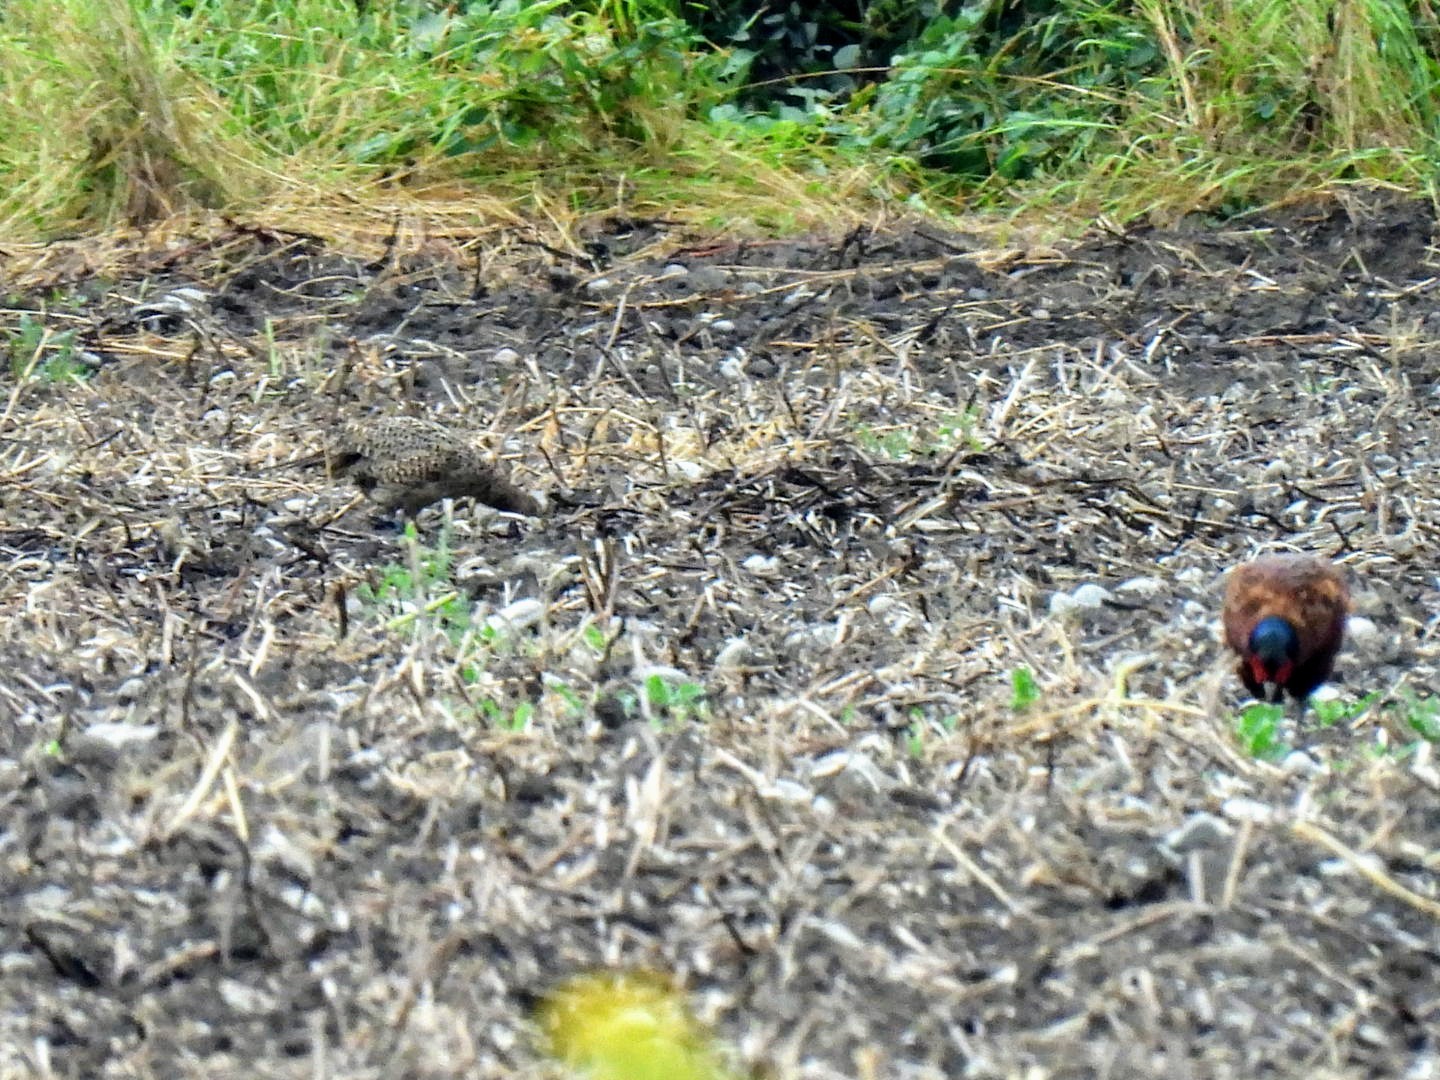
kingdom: Animalia
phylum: Chordata
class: Aves
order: Galliformes
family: Phasianidae
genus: Phasianus
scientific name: Phasianus colchicus
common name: Common pheasant
